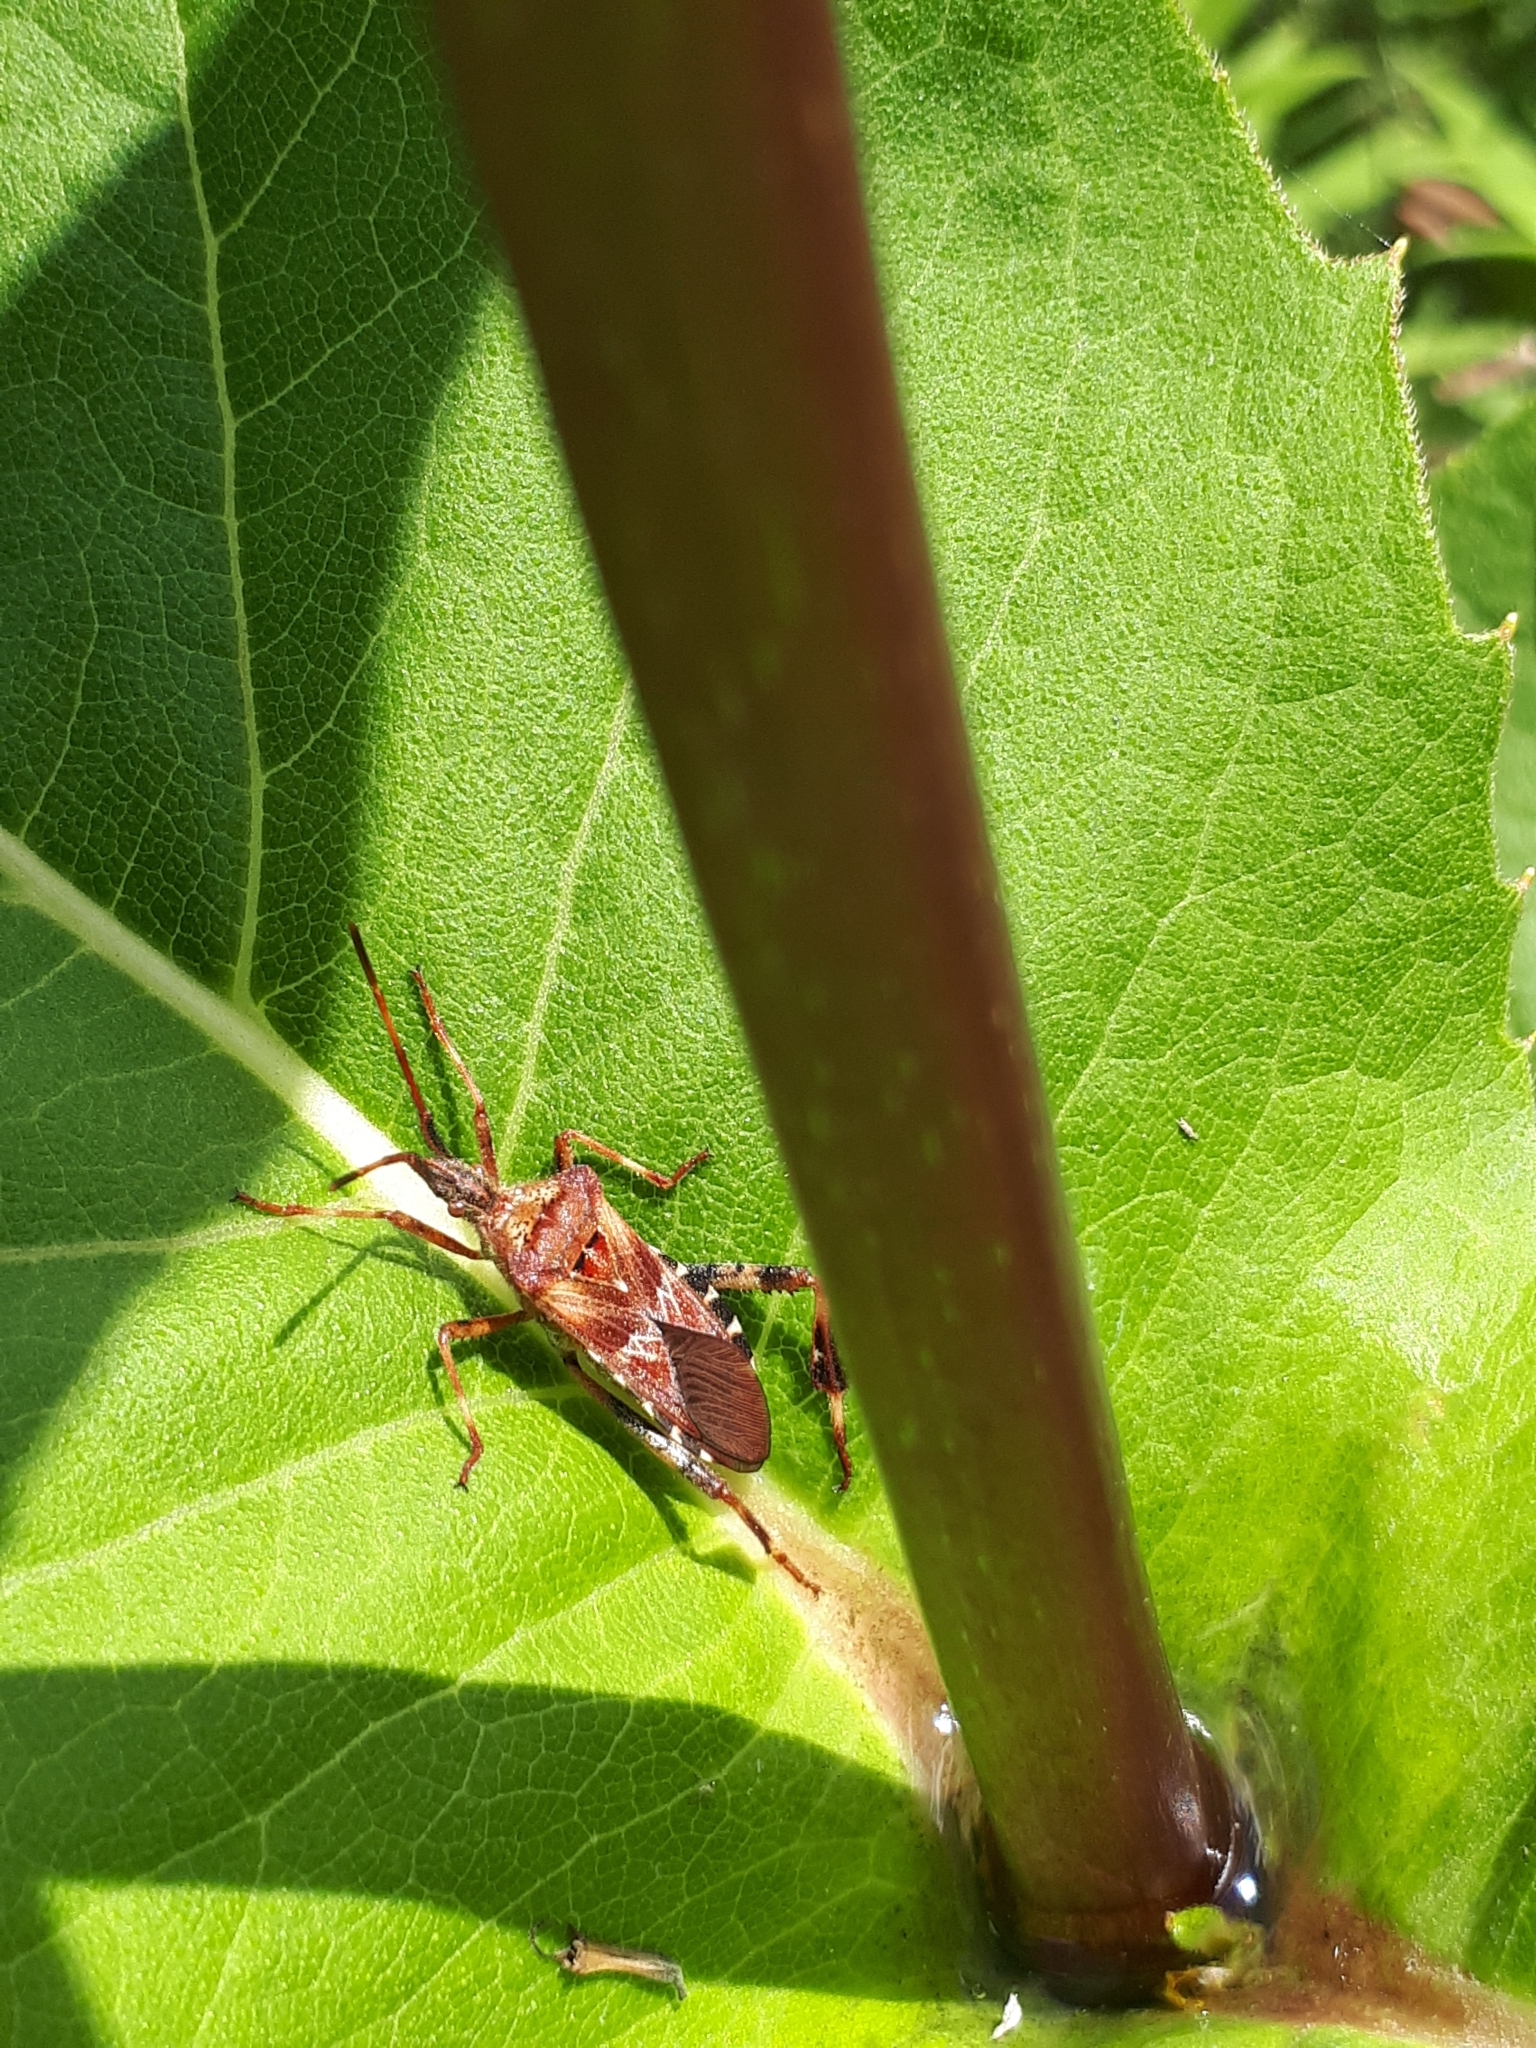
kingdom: Animalia
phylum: Arthropoda
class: Insecta
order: Hemiptera
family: Coreidae
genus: Leptoglossus
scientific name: Leptoglossus occidentalis
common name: Western conifer-seed bug
